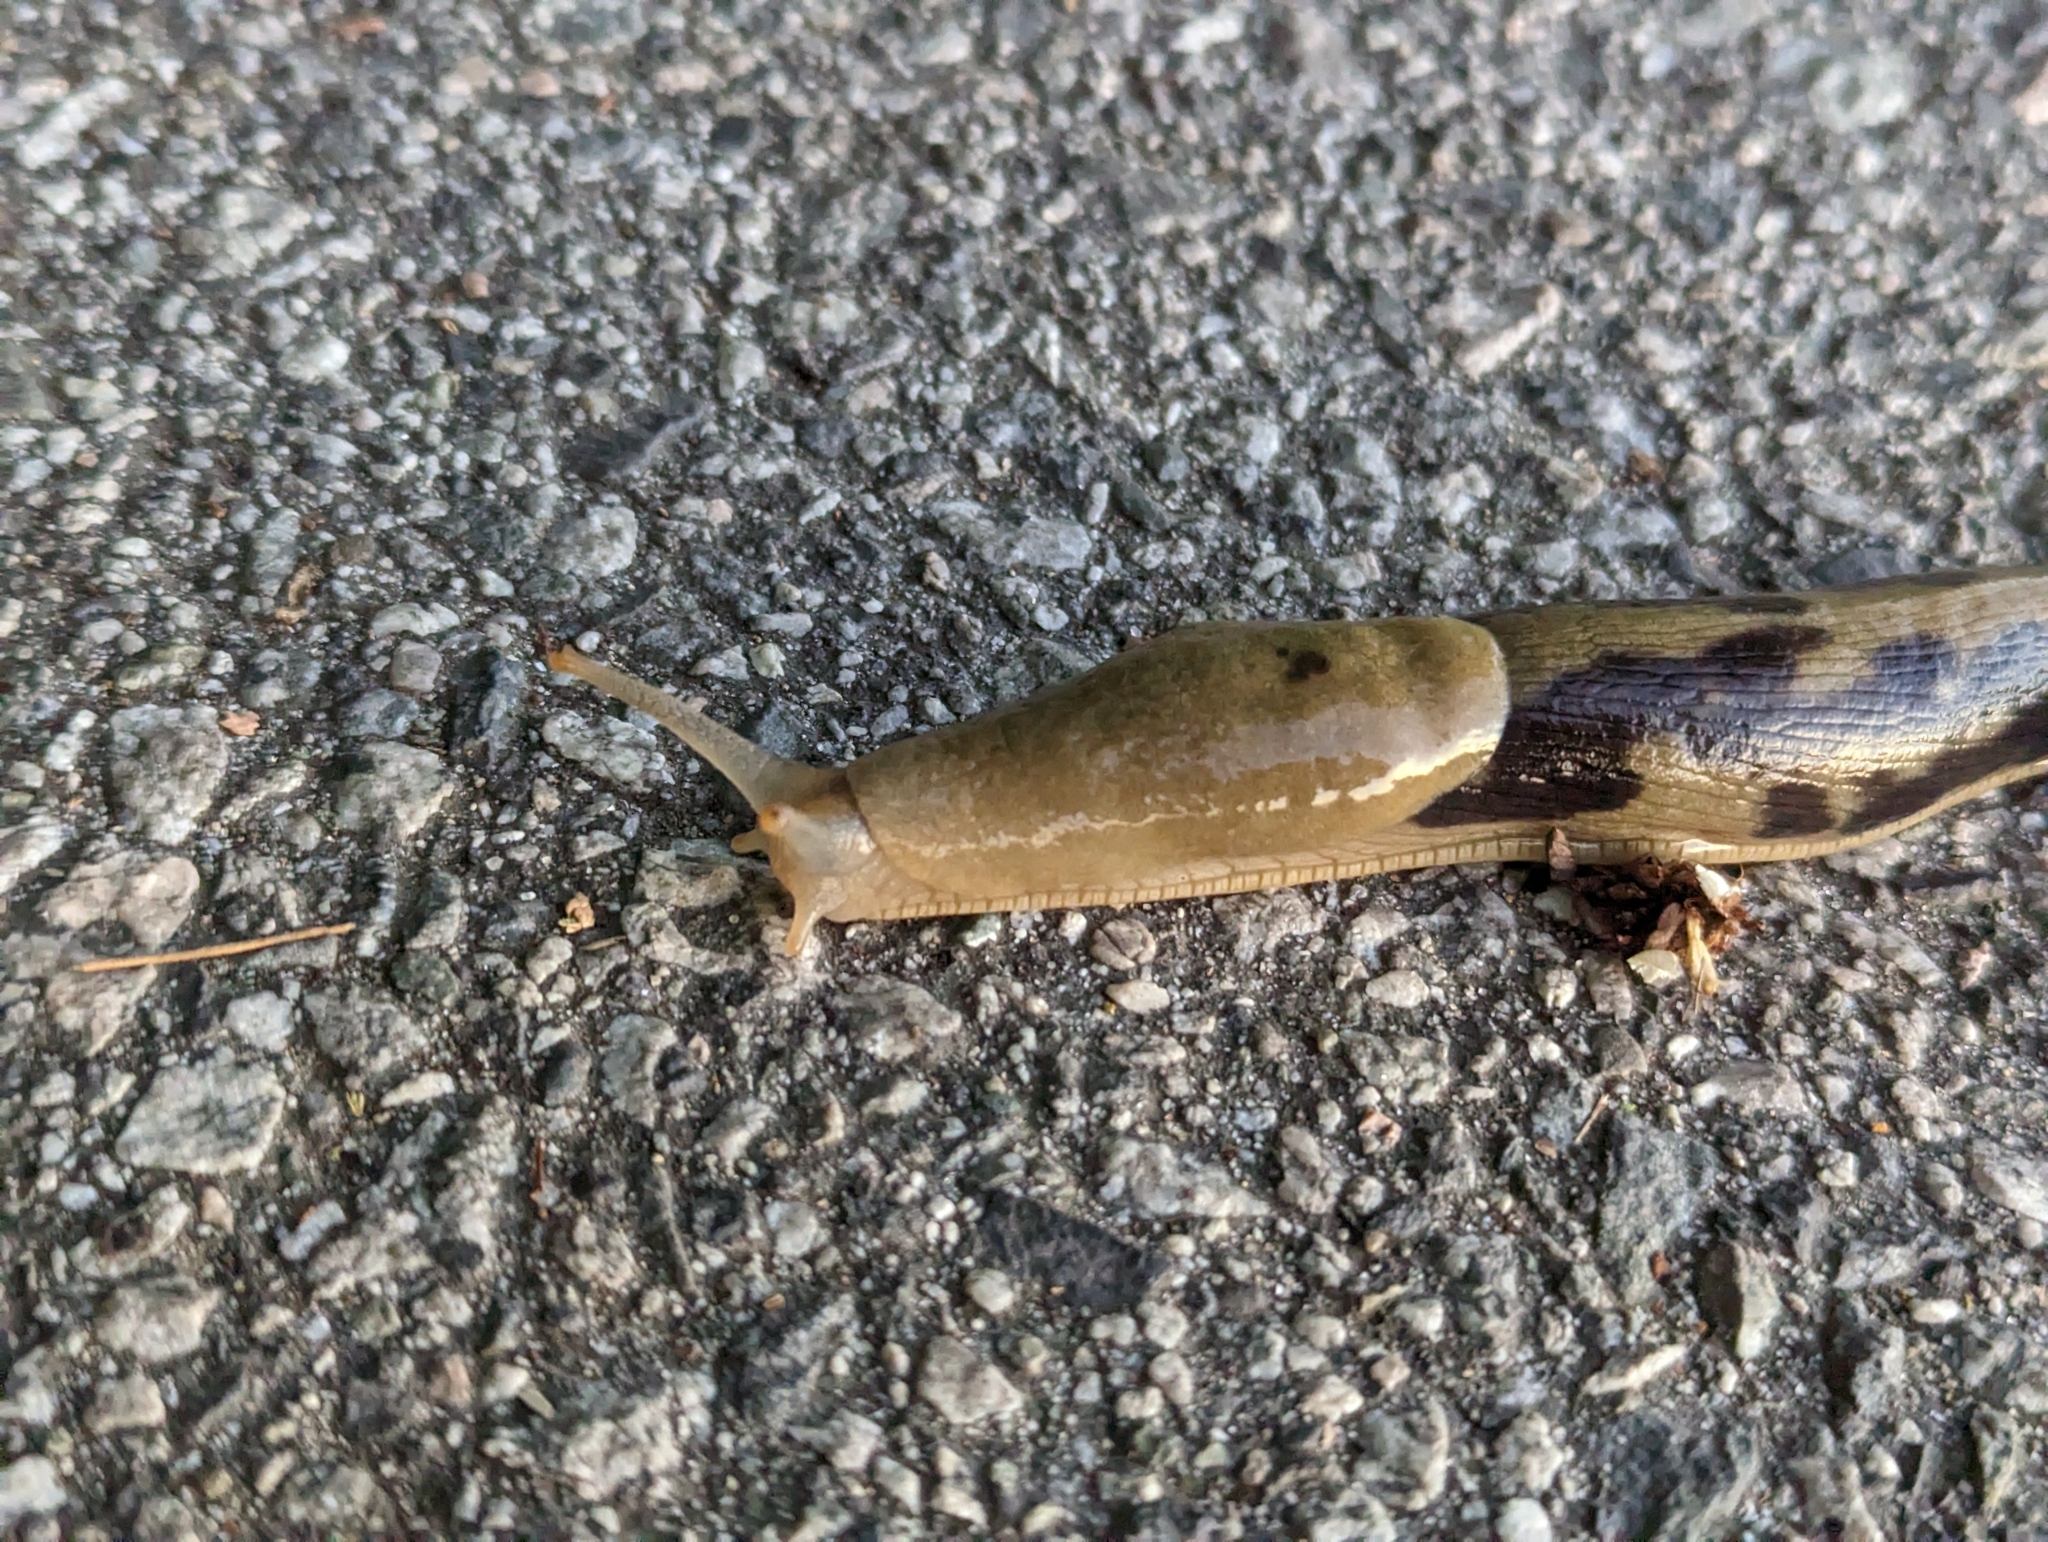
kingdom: Animalia
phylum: Mollusca
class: Gastropoda
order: Stylommatophora
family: Ariolimacidae
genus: Ariolimax
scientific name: Ariolimax columbianus
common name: Pacific banana slug
